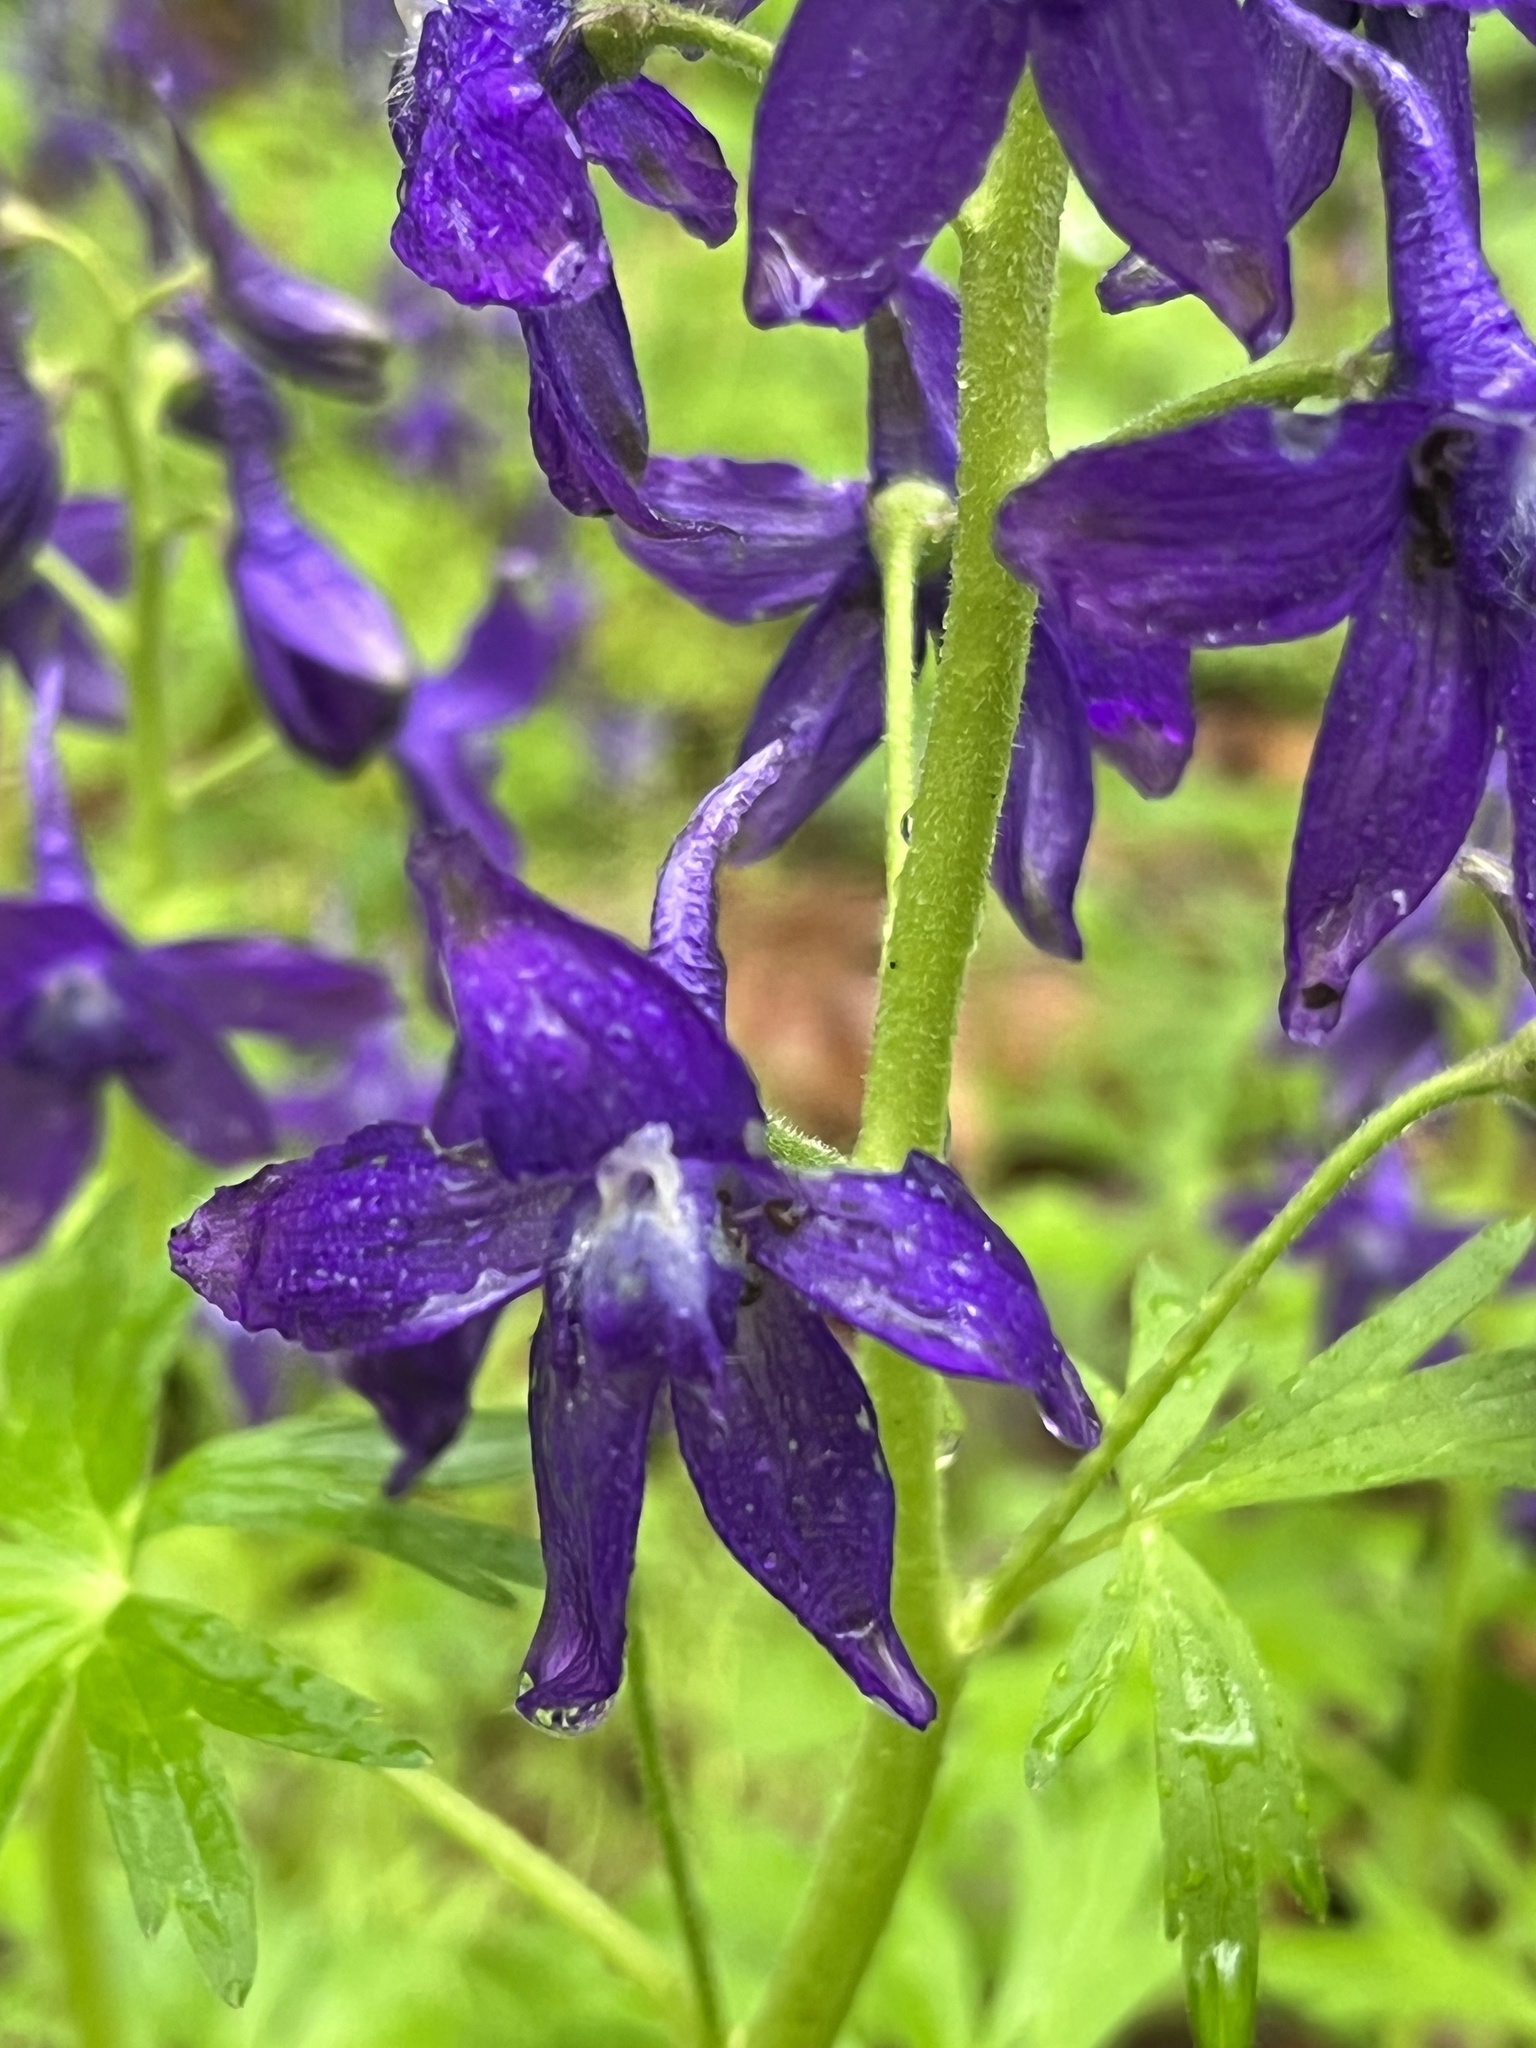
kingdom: Plantae
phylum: Tracheophyta
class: Magnoliopsida
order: Ranunculales
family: Ranunculaceae
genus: Delphinium
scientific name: Delphinium tricorne
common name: Dwarf larkspur
